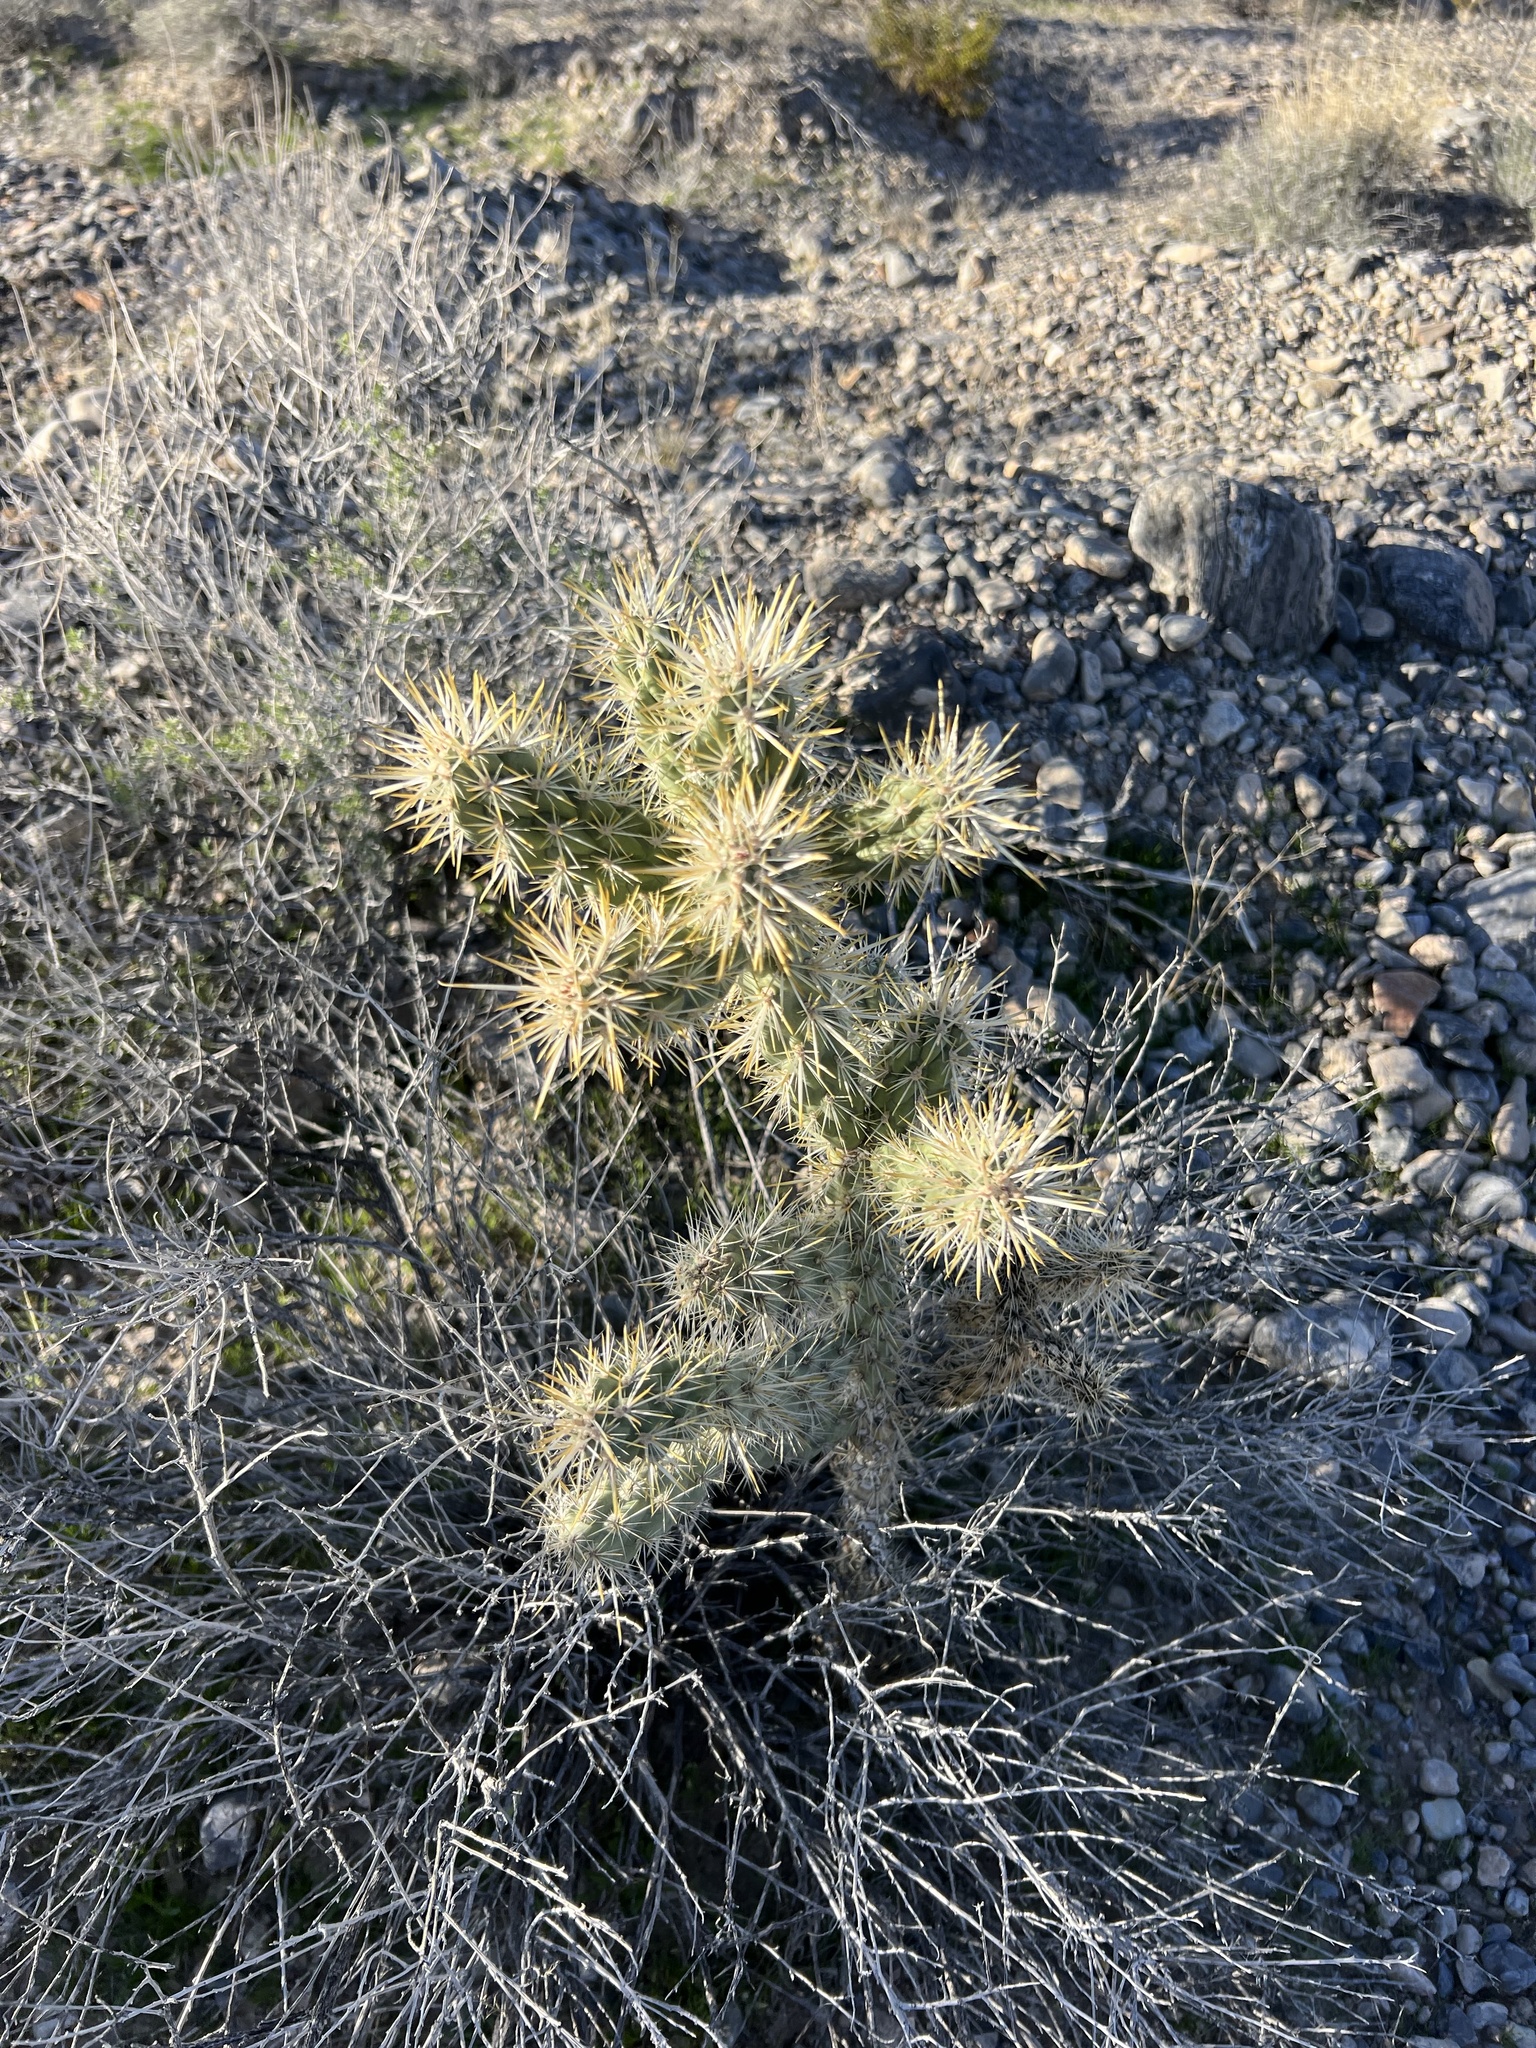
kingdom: Plantae
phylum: Tracheophyta
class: Magnoliopsida
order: Caryophyllales
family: Cactaceae
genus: Cylindropuntia
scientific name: Cylindropuntia echinocarpa
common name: Ground cholla
